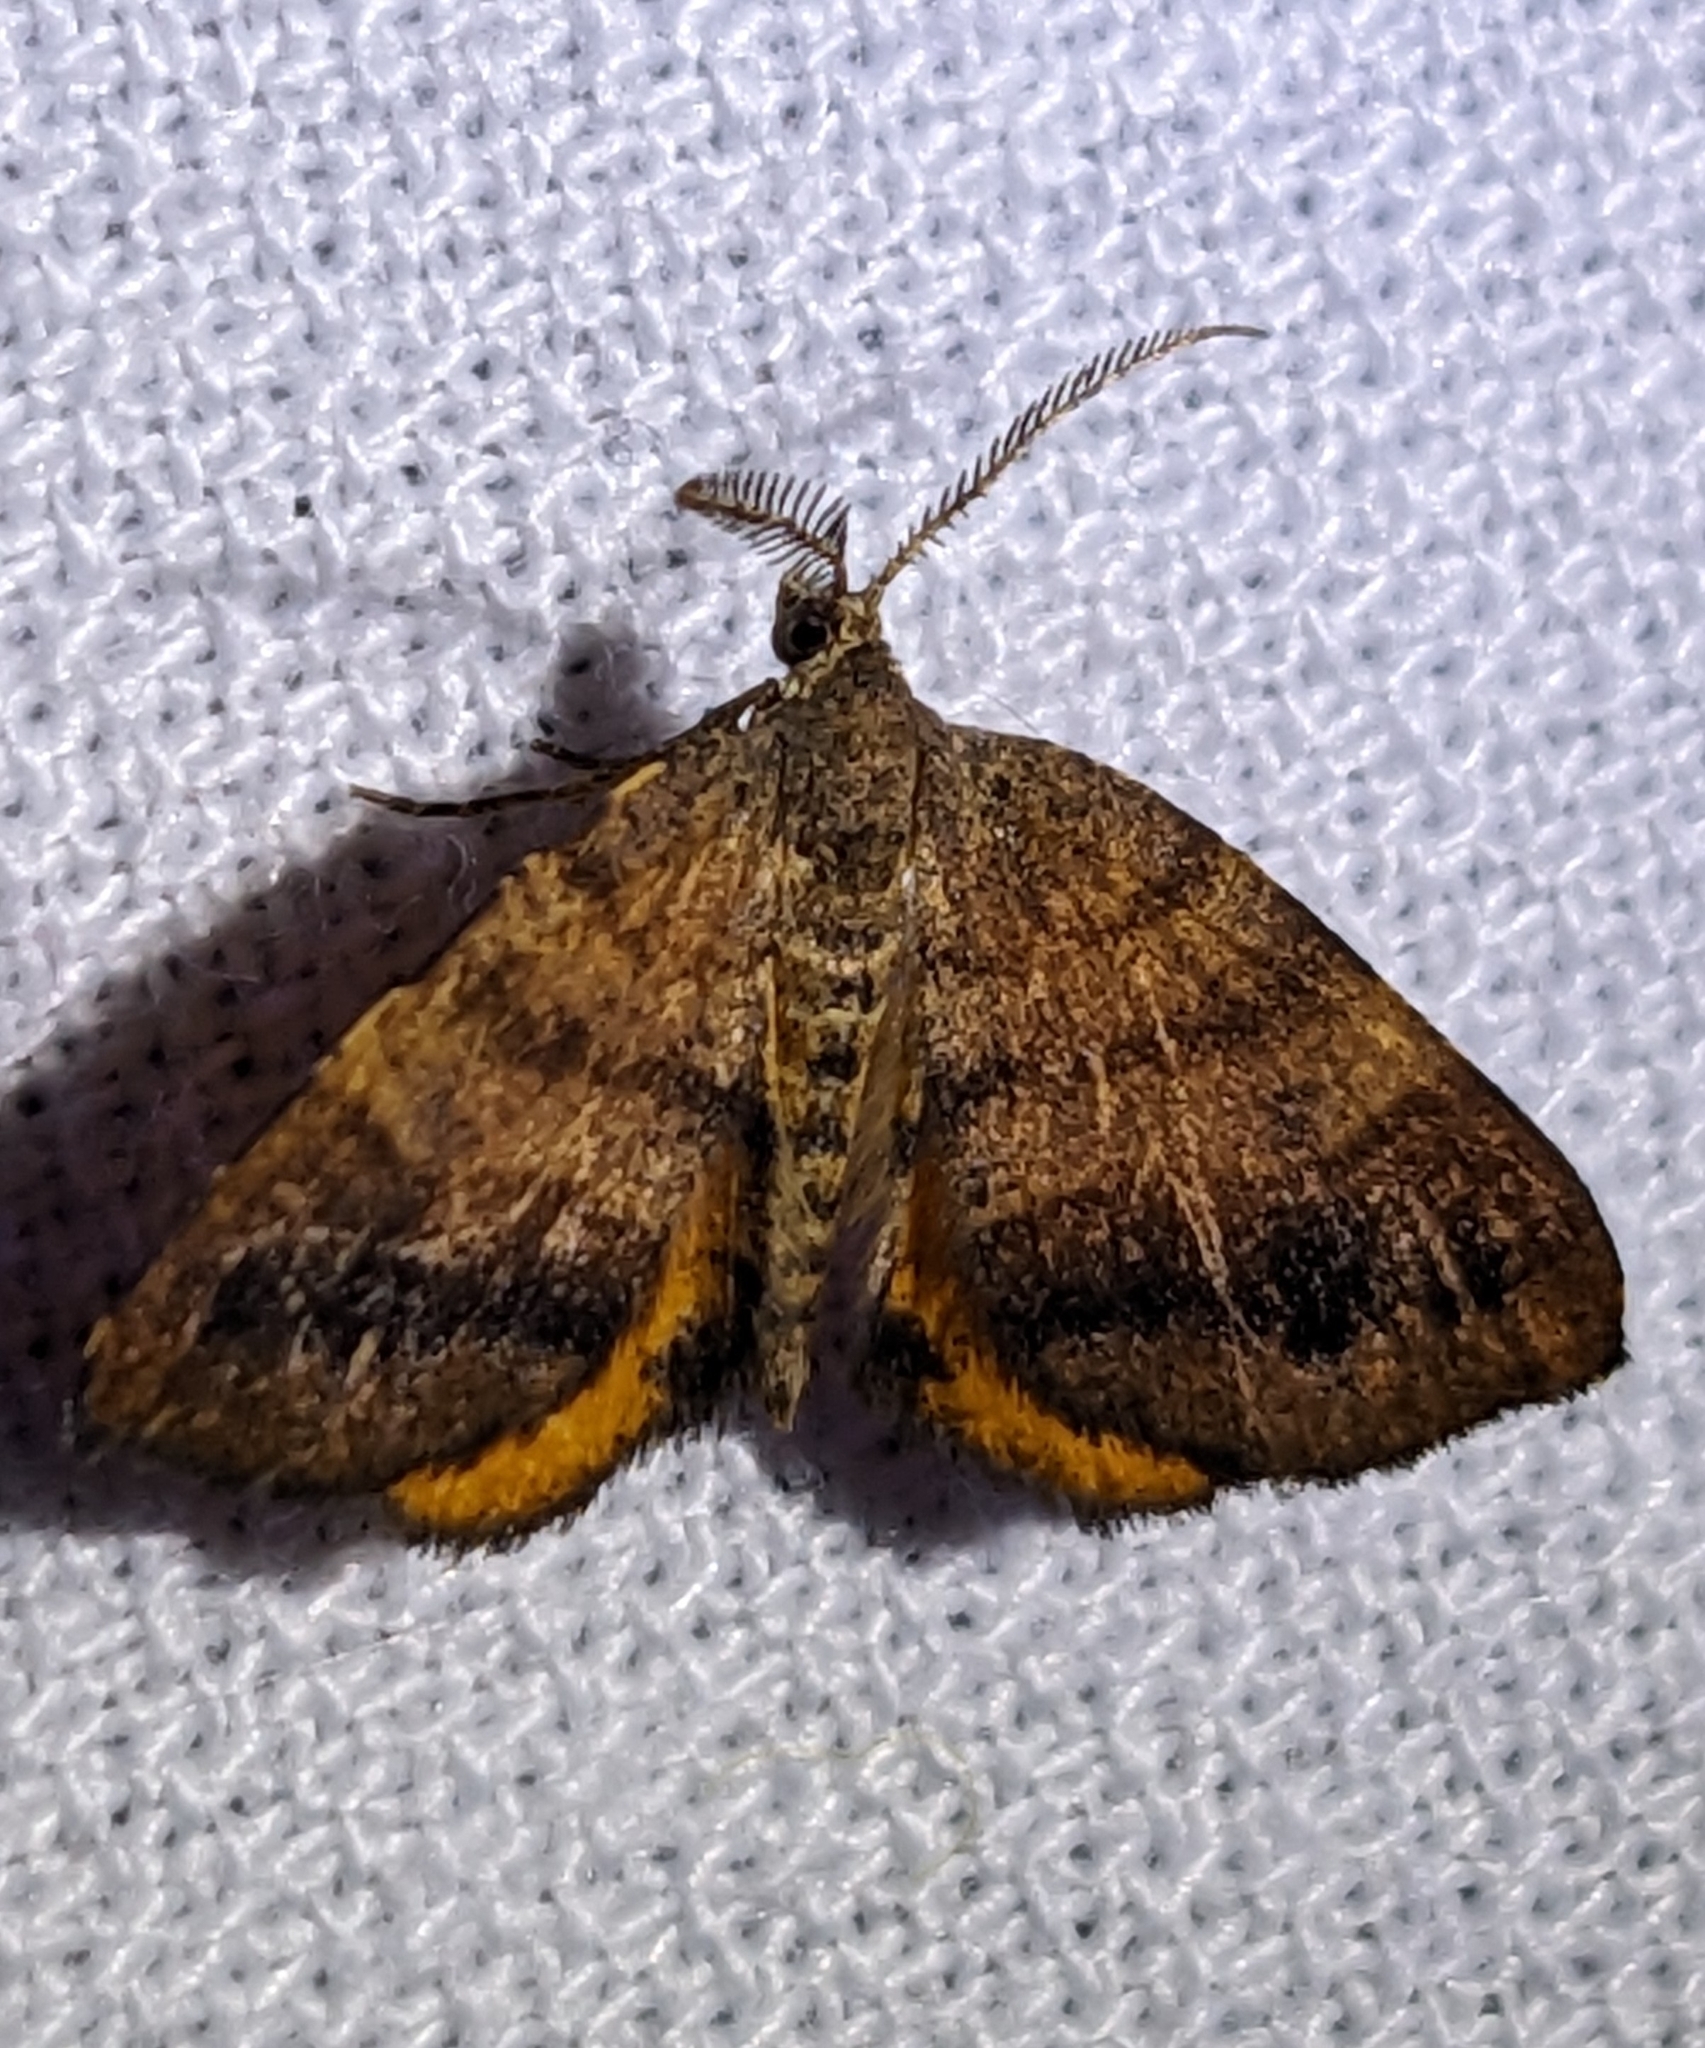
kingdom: Animalia
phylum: Arthropoda
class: Insecta
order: Lepidoptera
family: Geometridae
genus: Mellilla
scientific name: Mellilla xanthometata
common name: Orange wing moth
